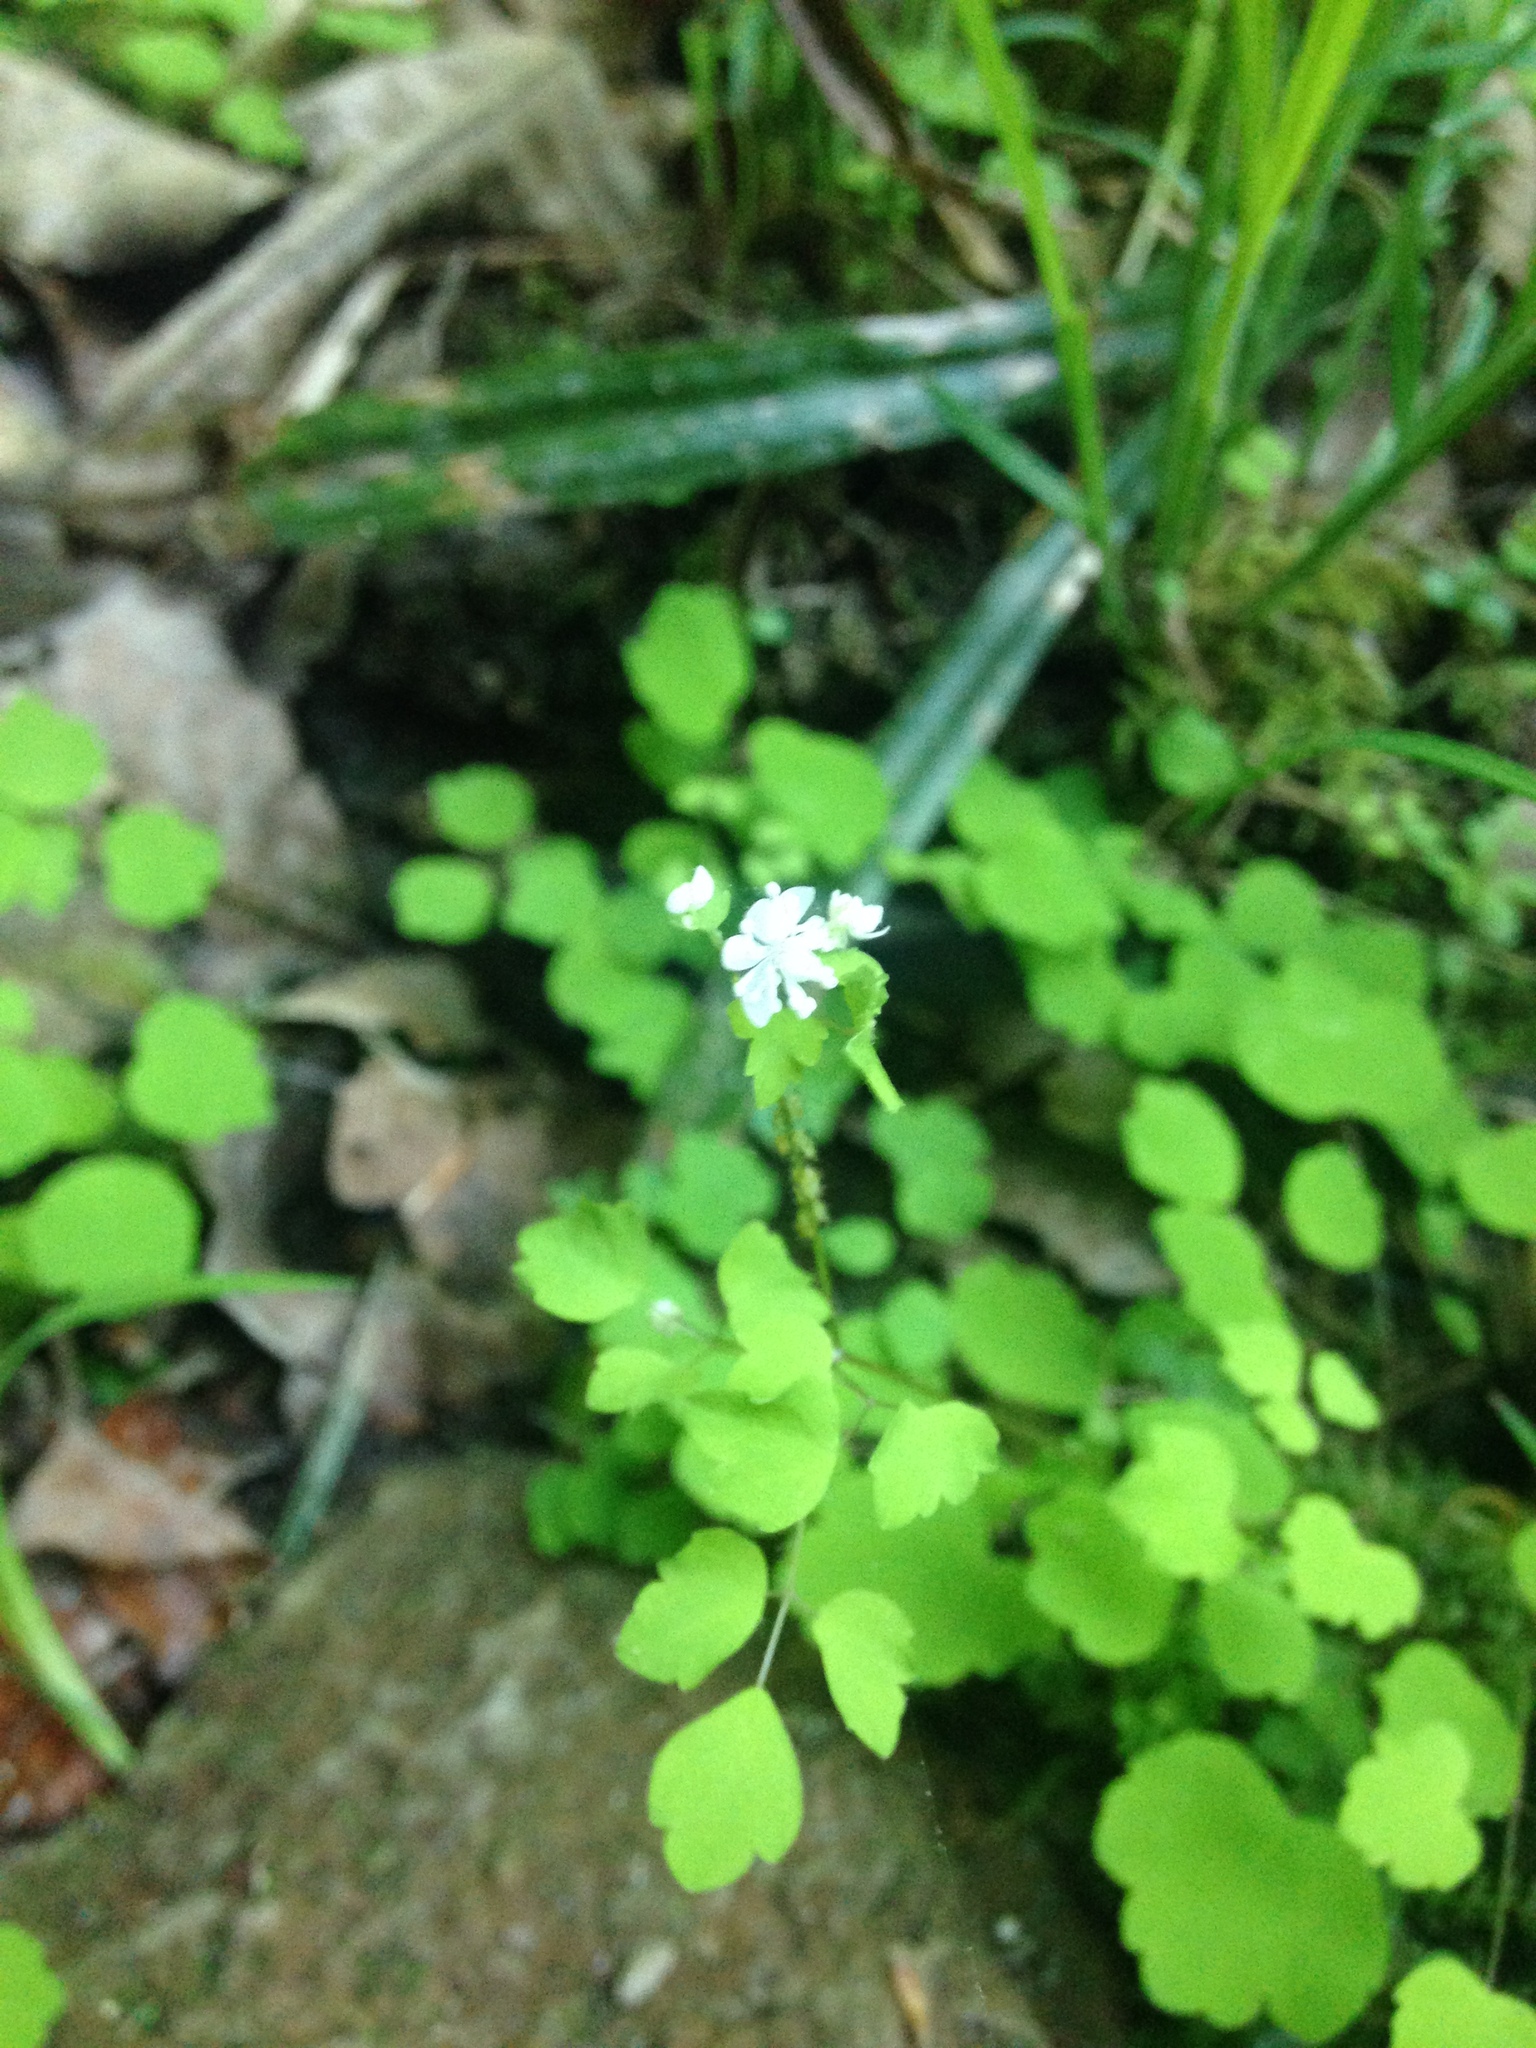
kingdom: Plantae
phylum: Tracheophyta
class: Magnoliopsida
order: Ranunculales
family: Ranunculaceae
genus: Thalictrum
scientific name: Thalictrum clavatum
